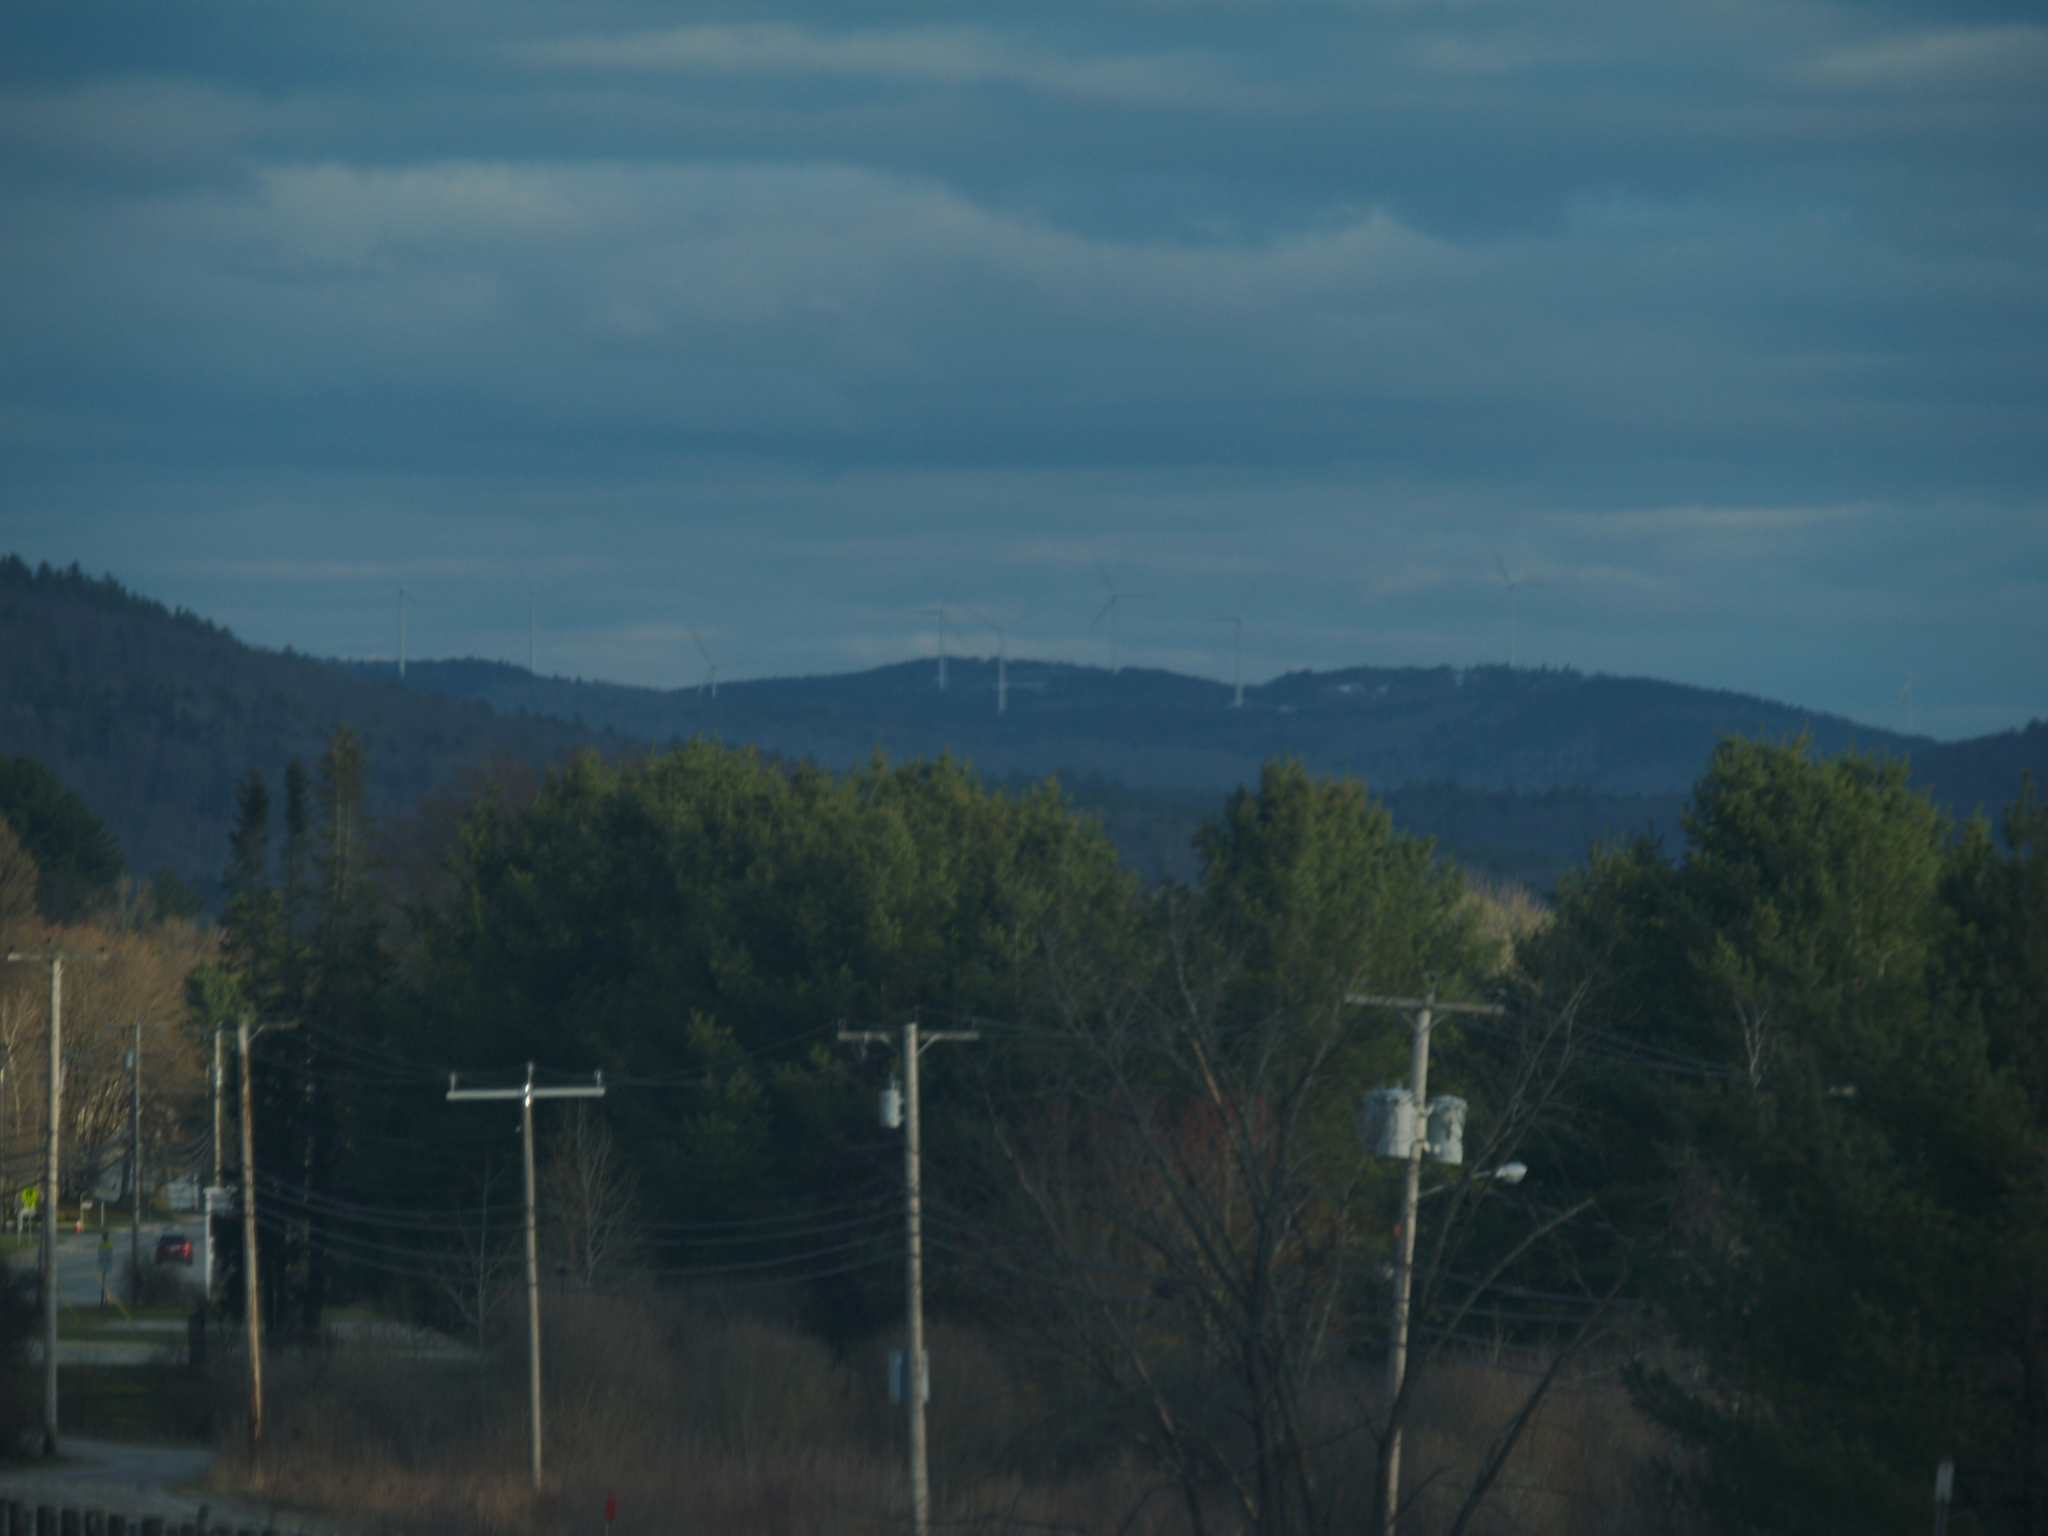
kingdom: Plantae
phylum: Tracheophyta
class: Pinopsida
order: Pinales
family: Pinaceae
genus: Pinus
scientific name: Pinus strobus
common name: Weymouth pine
